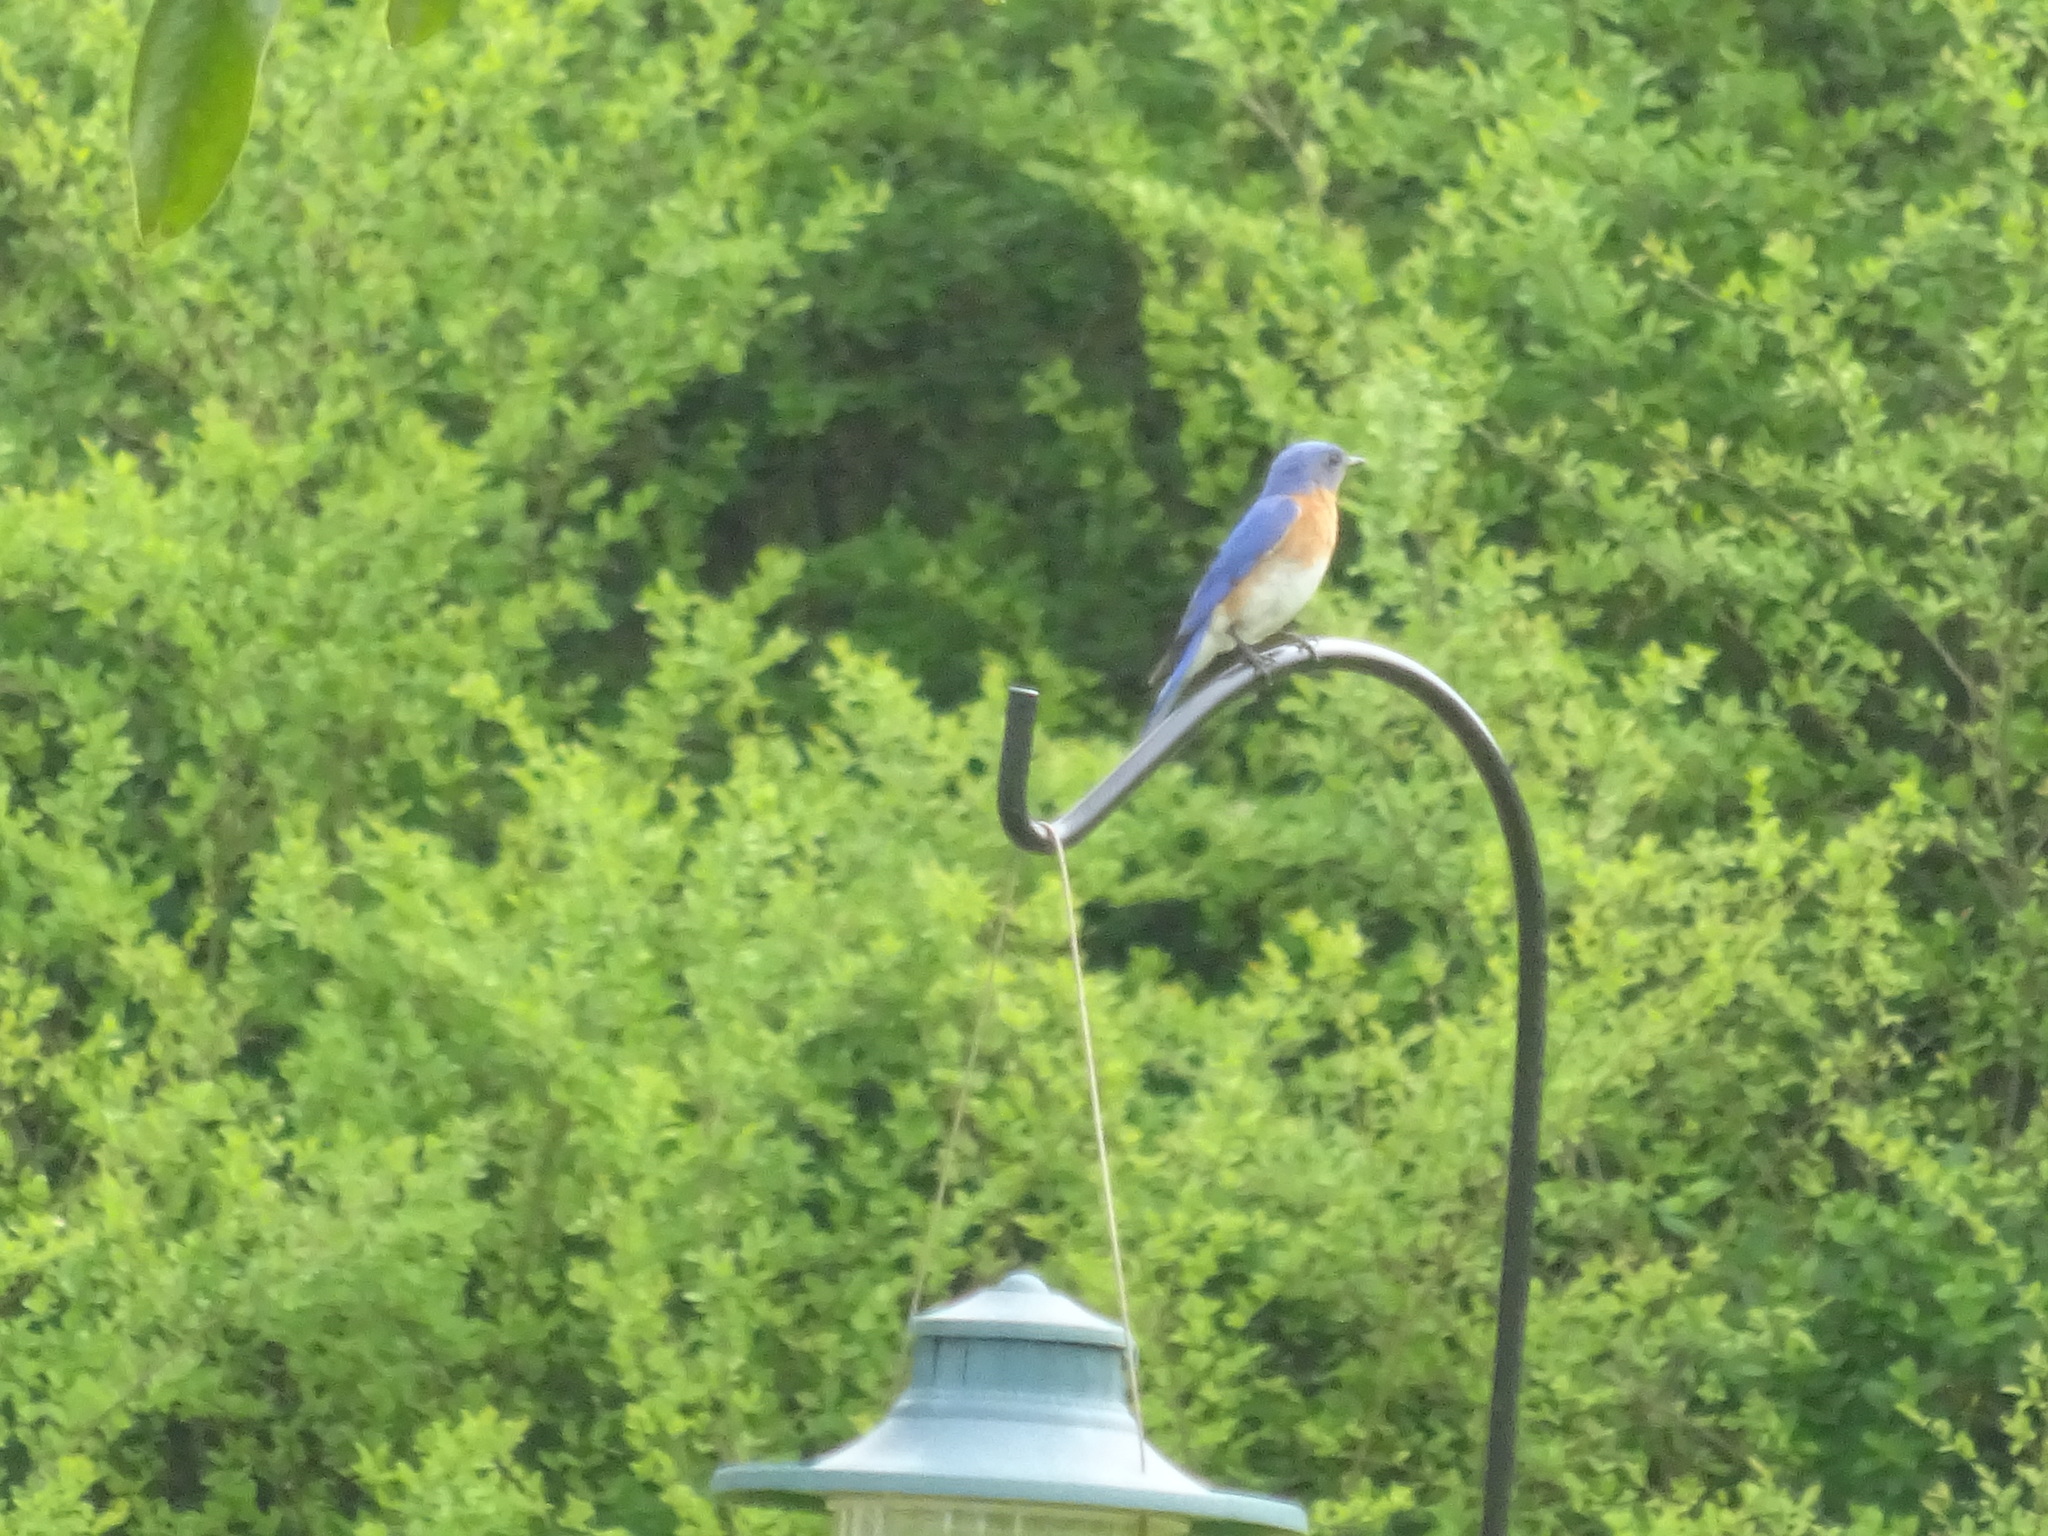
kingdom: Animalia
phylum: Chordata
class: Aves
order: Passeriformes
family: Turdidae
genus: Sialia
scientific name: Sialia sialis
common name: Eastern bluebird
